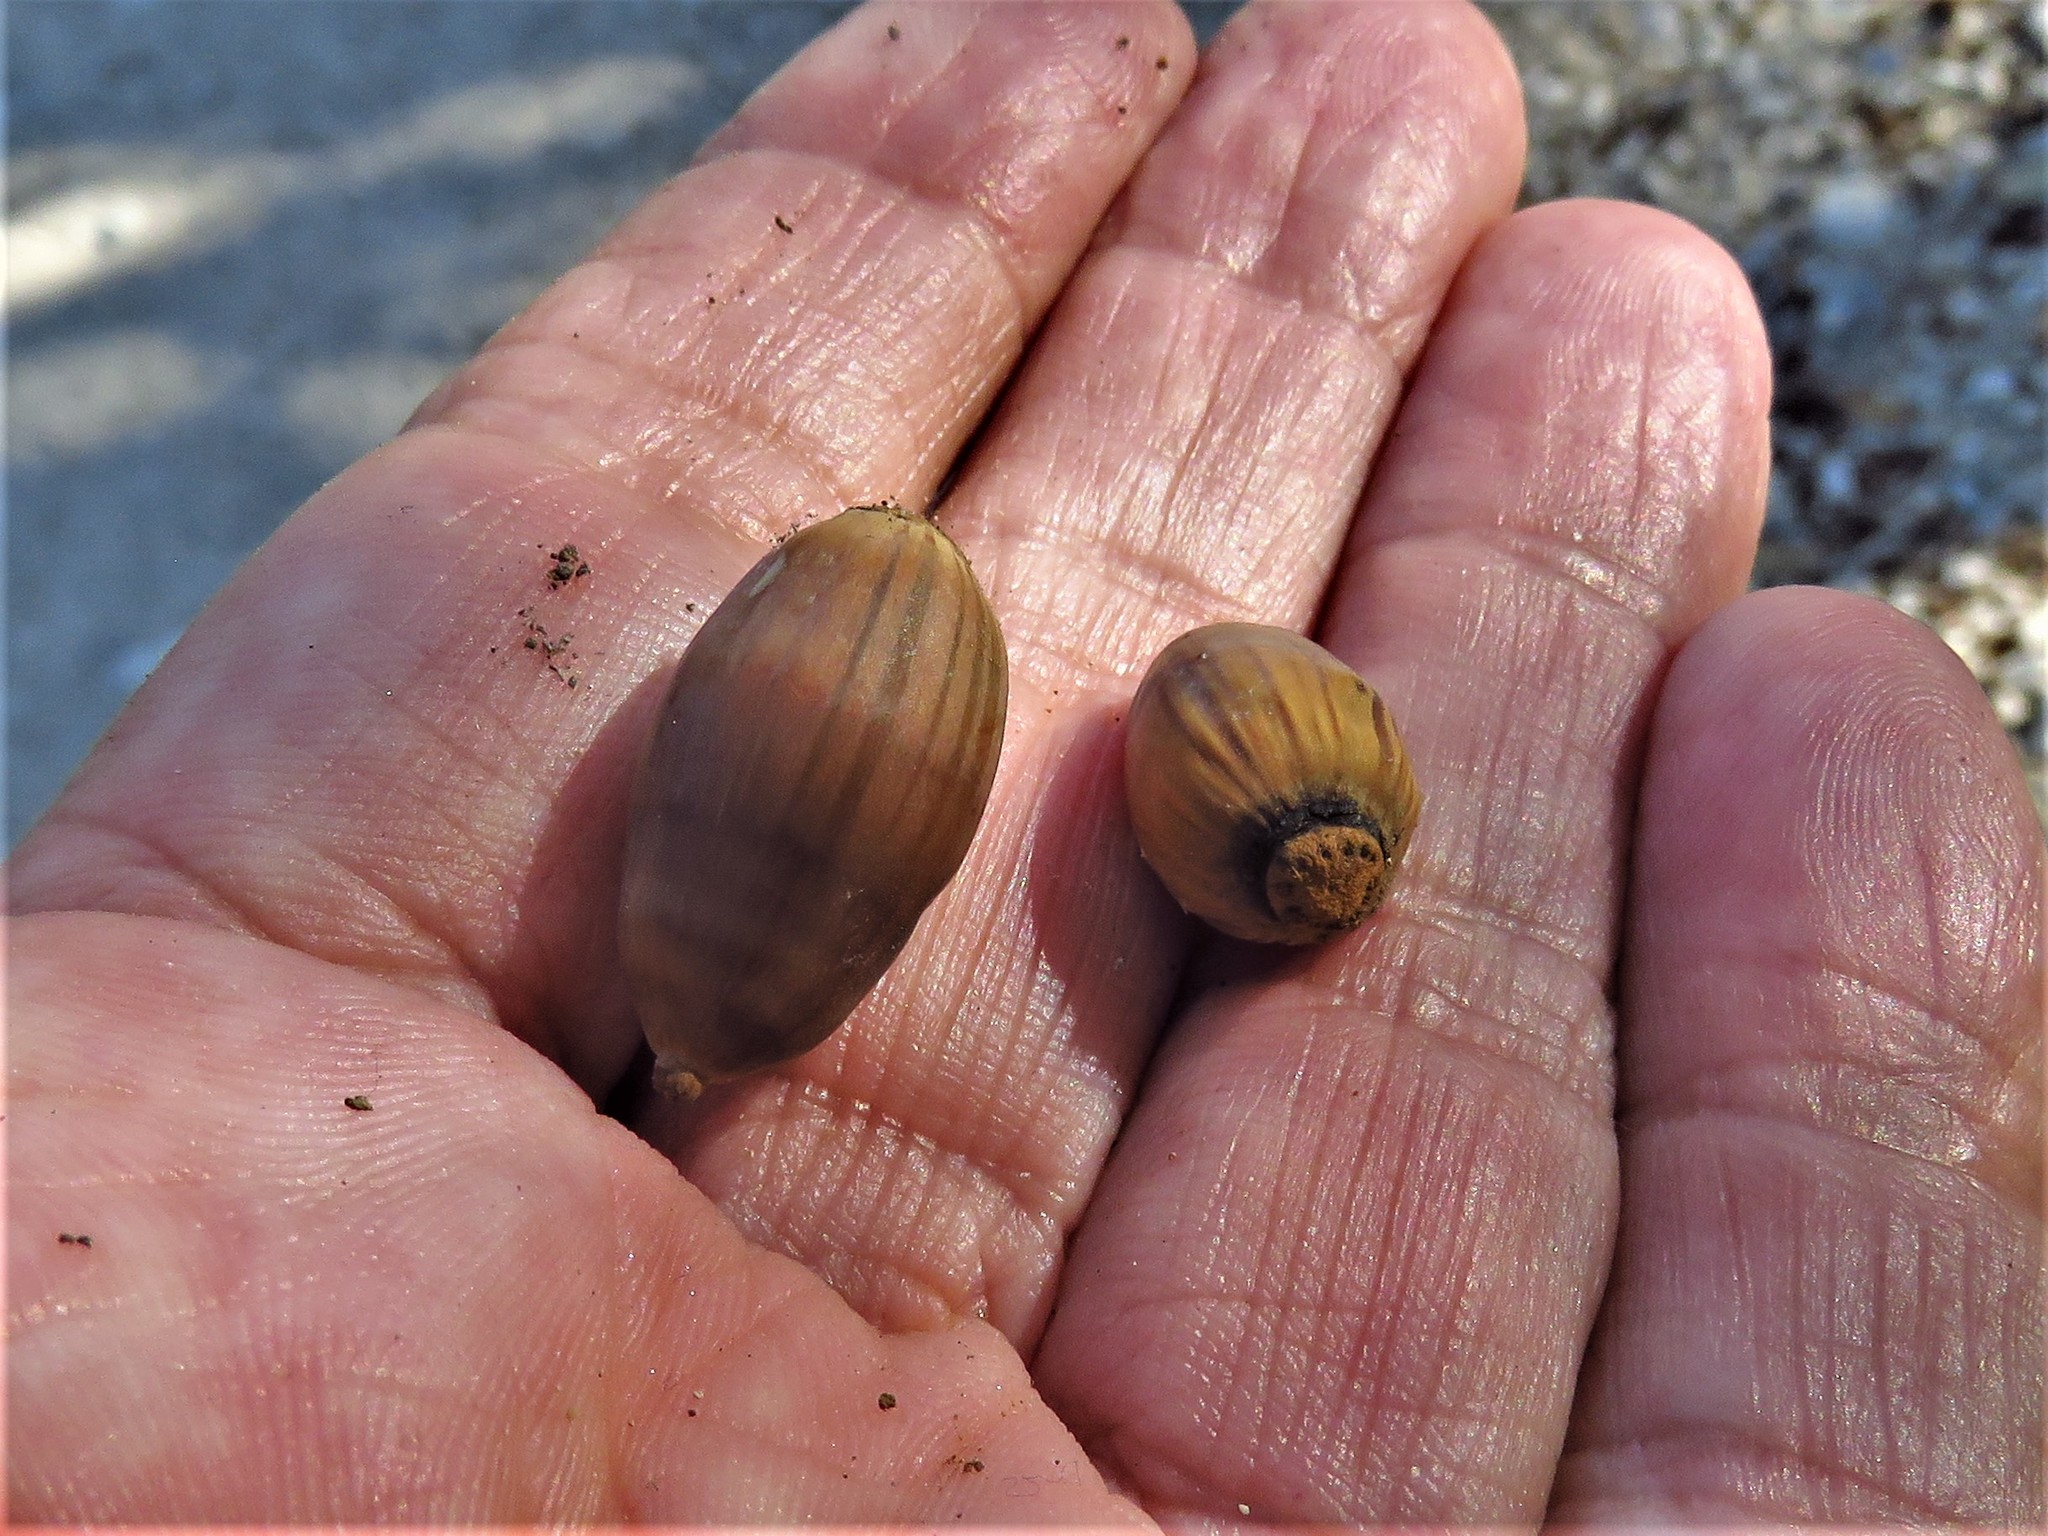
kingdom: Plantae
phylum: Tracheophyta
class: Magnoliopsida
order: Fagales
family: Fagaceae
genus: Quercus
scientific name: Quercus fusiformis
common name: Texas live oak
